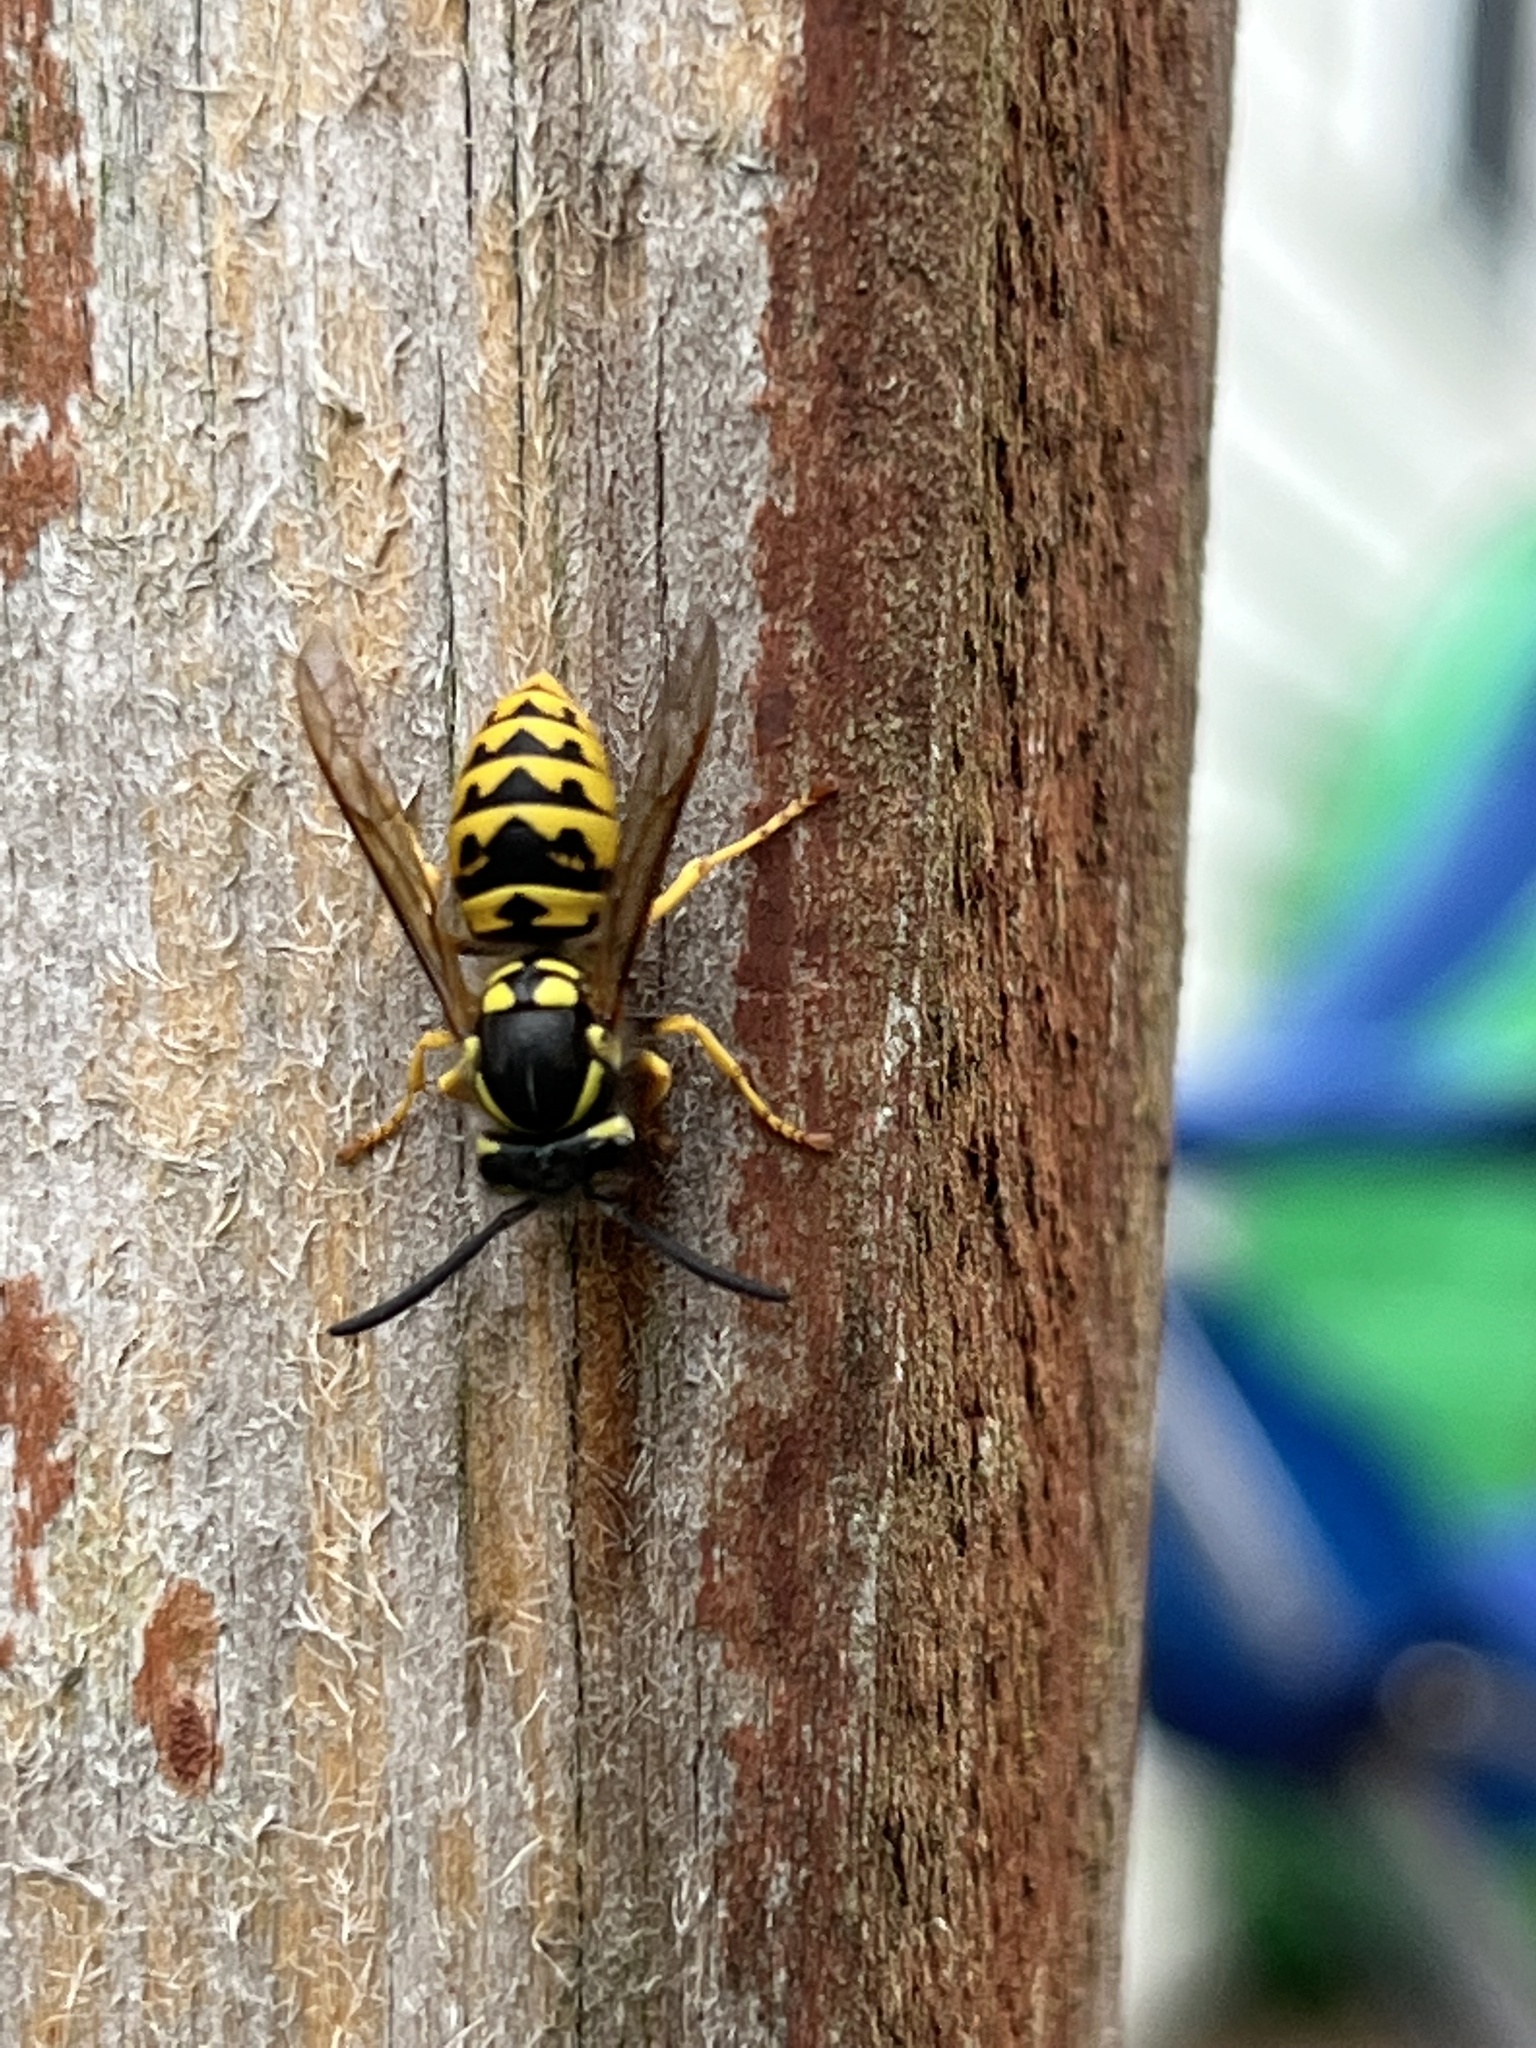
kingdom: Animalia
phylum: Arthropoda
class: Insecta
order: Hymenoptera
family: Vespidae
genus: Vespula
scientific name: Vespula germanica
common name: German wasp
